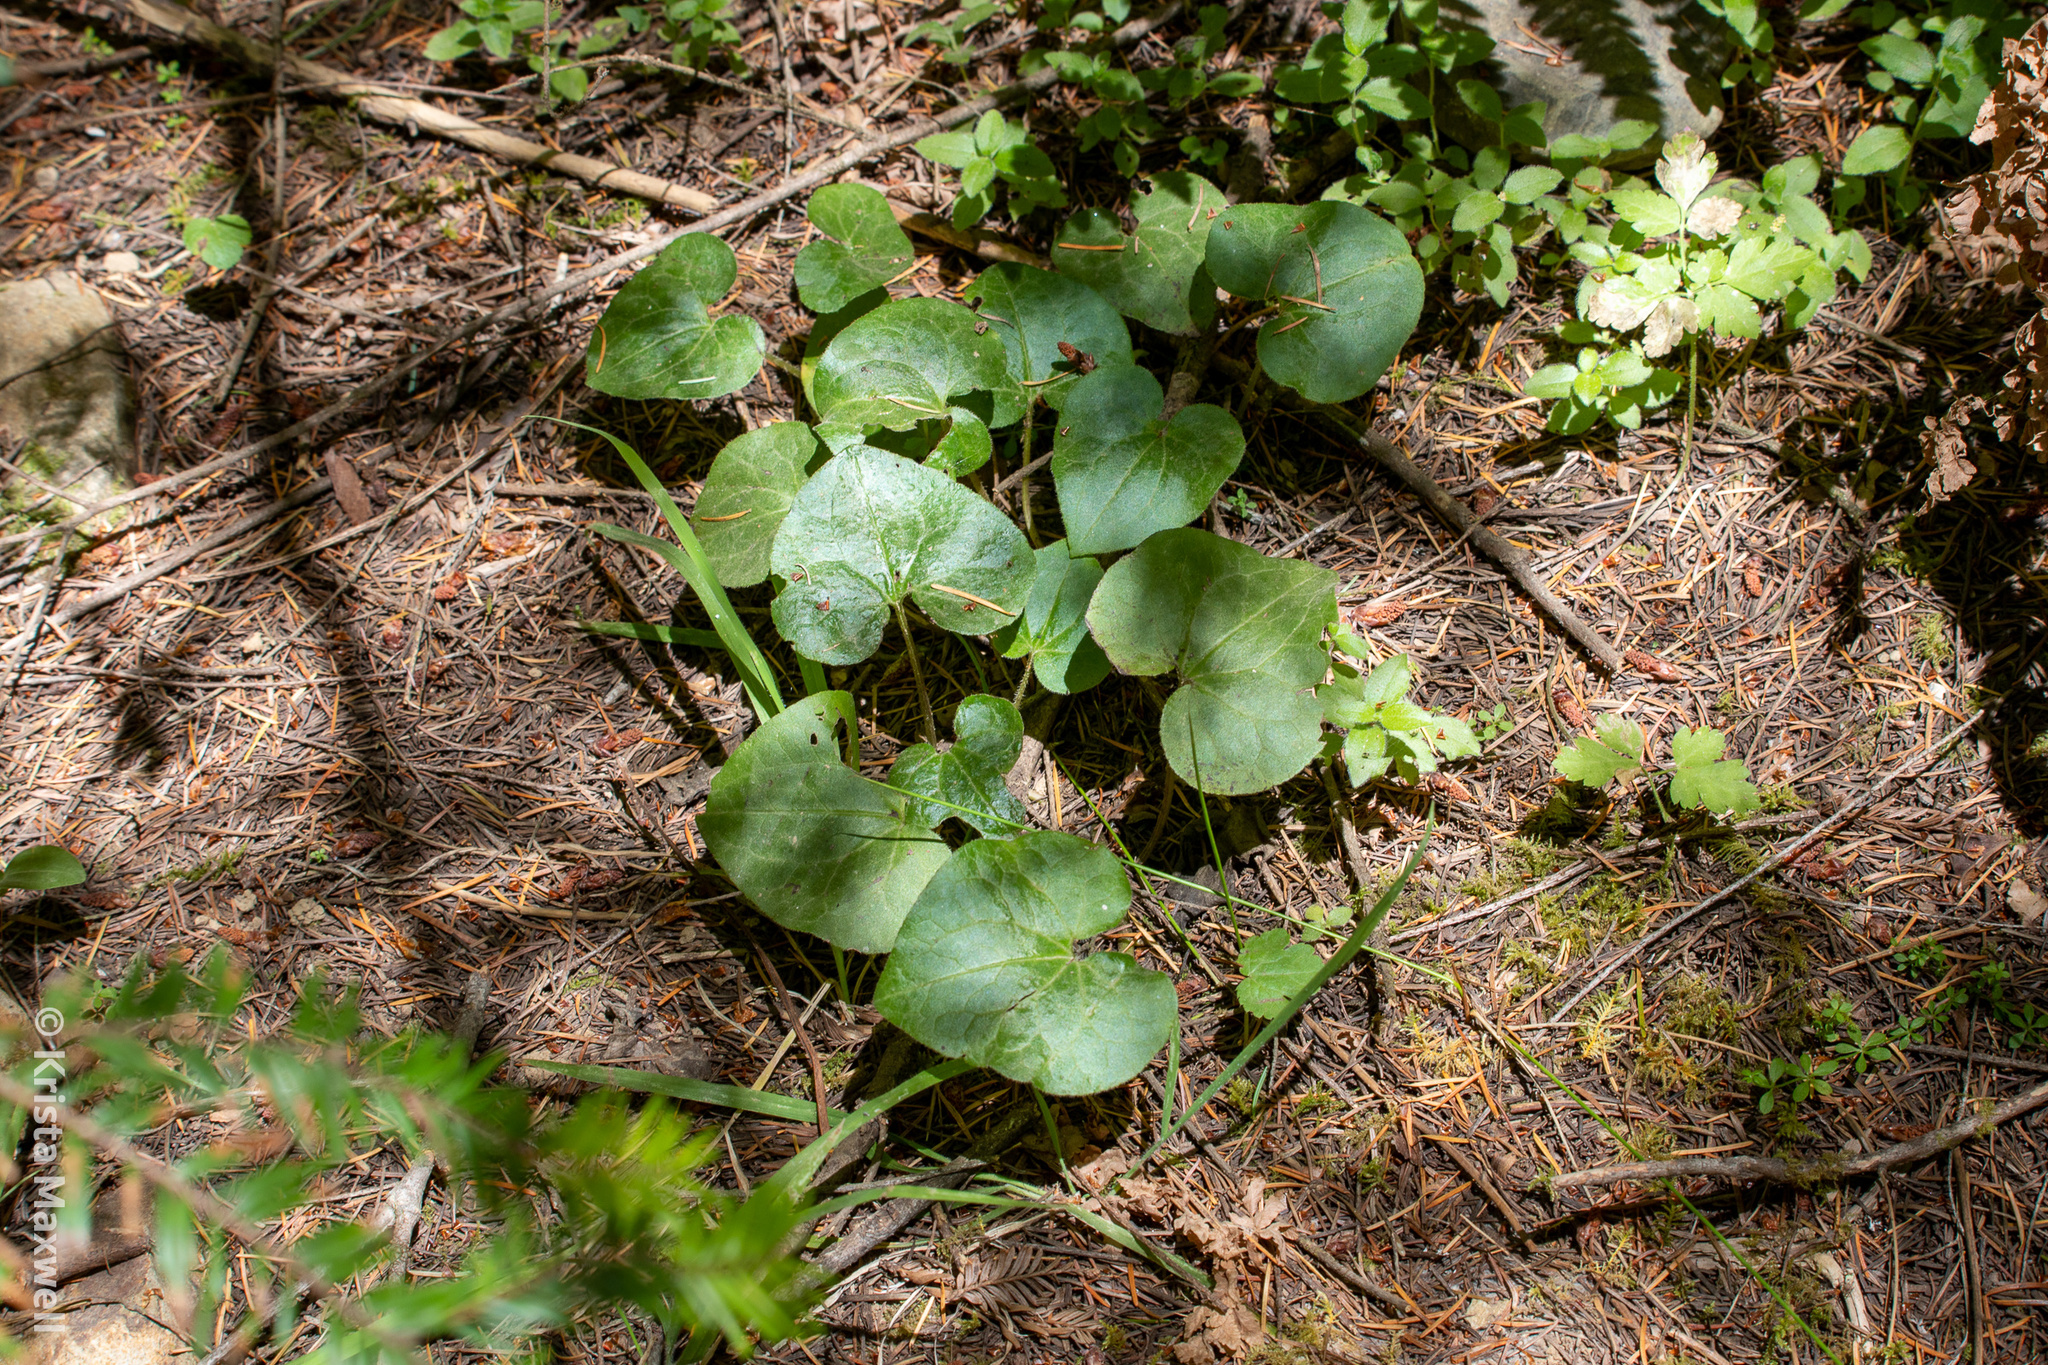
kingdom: Plantae
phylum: Tracheophyta
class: Magnoliopsida
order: Piperales
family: Aristolochiaceae
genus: Asarum
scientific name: Asarum caudatum
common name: Wild ginger
